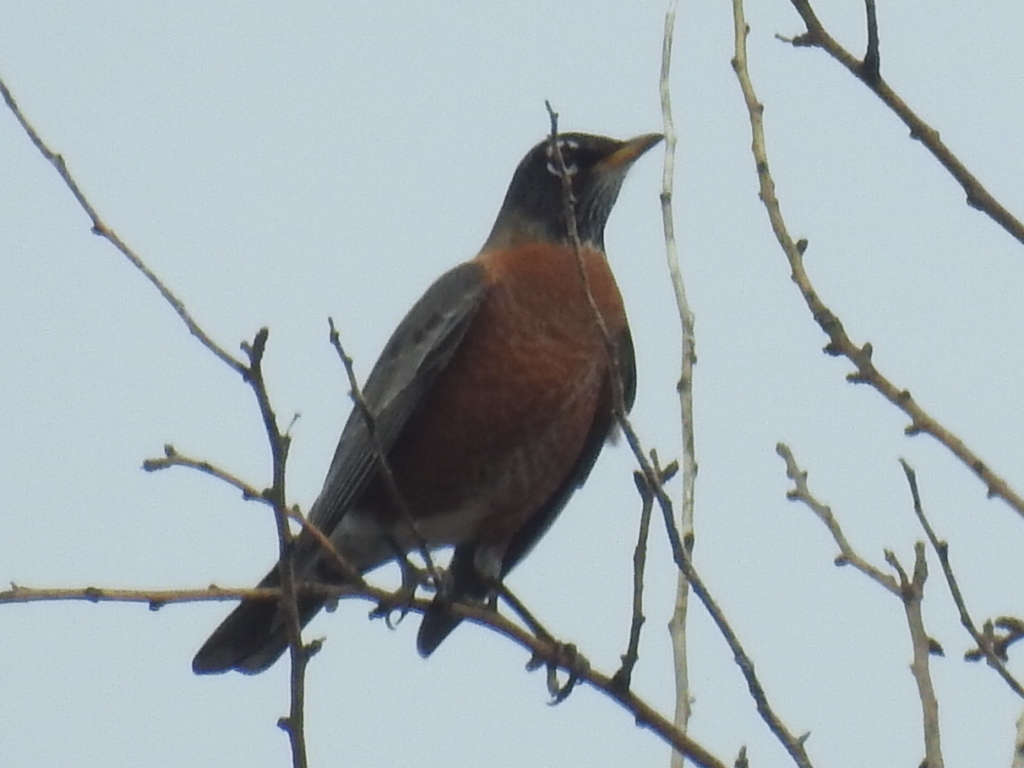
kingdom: Animalia
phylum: Chordata
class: Aves
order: Passeriformes
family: Turdidae
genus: Turdus
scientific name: Turdus migratorius
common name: American robin
